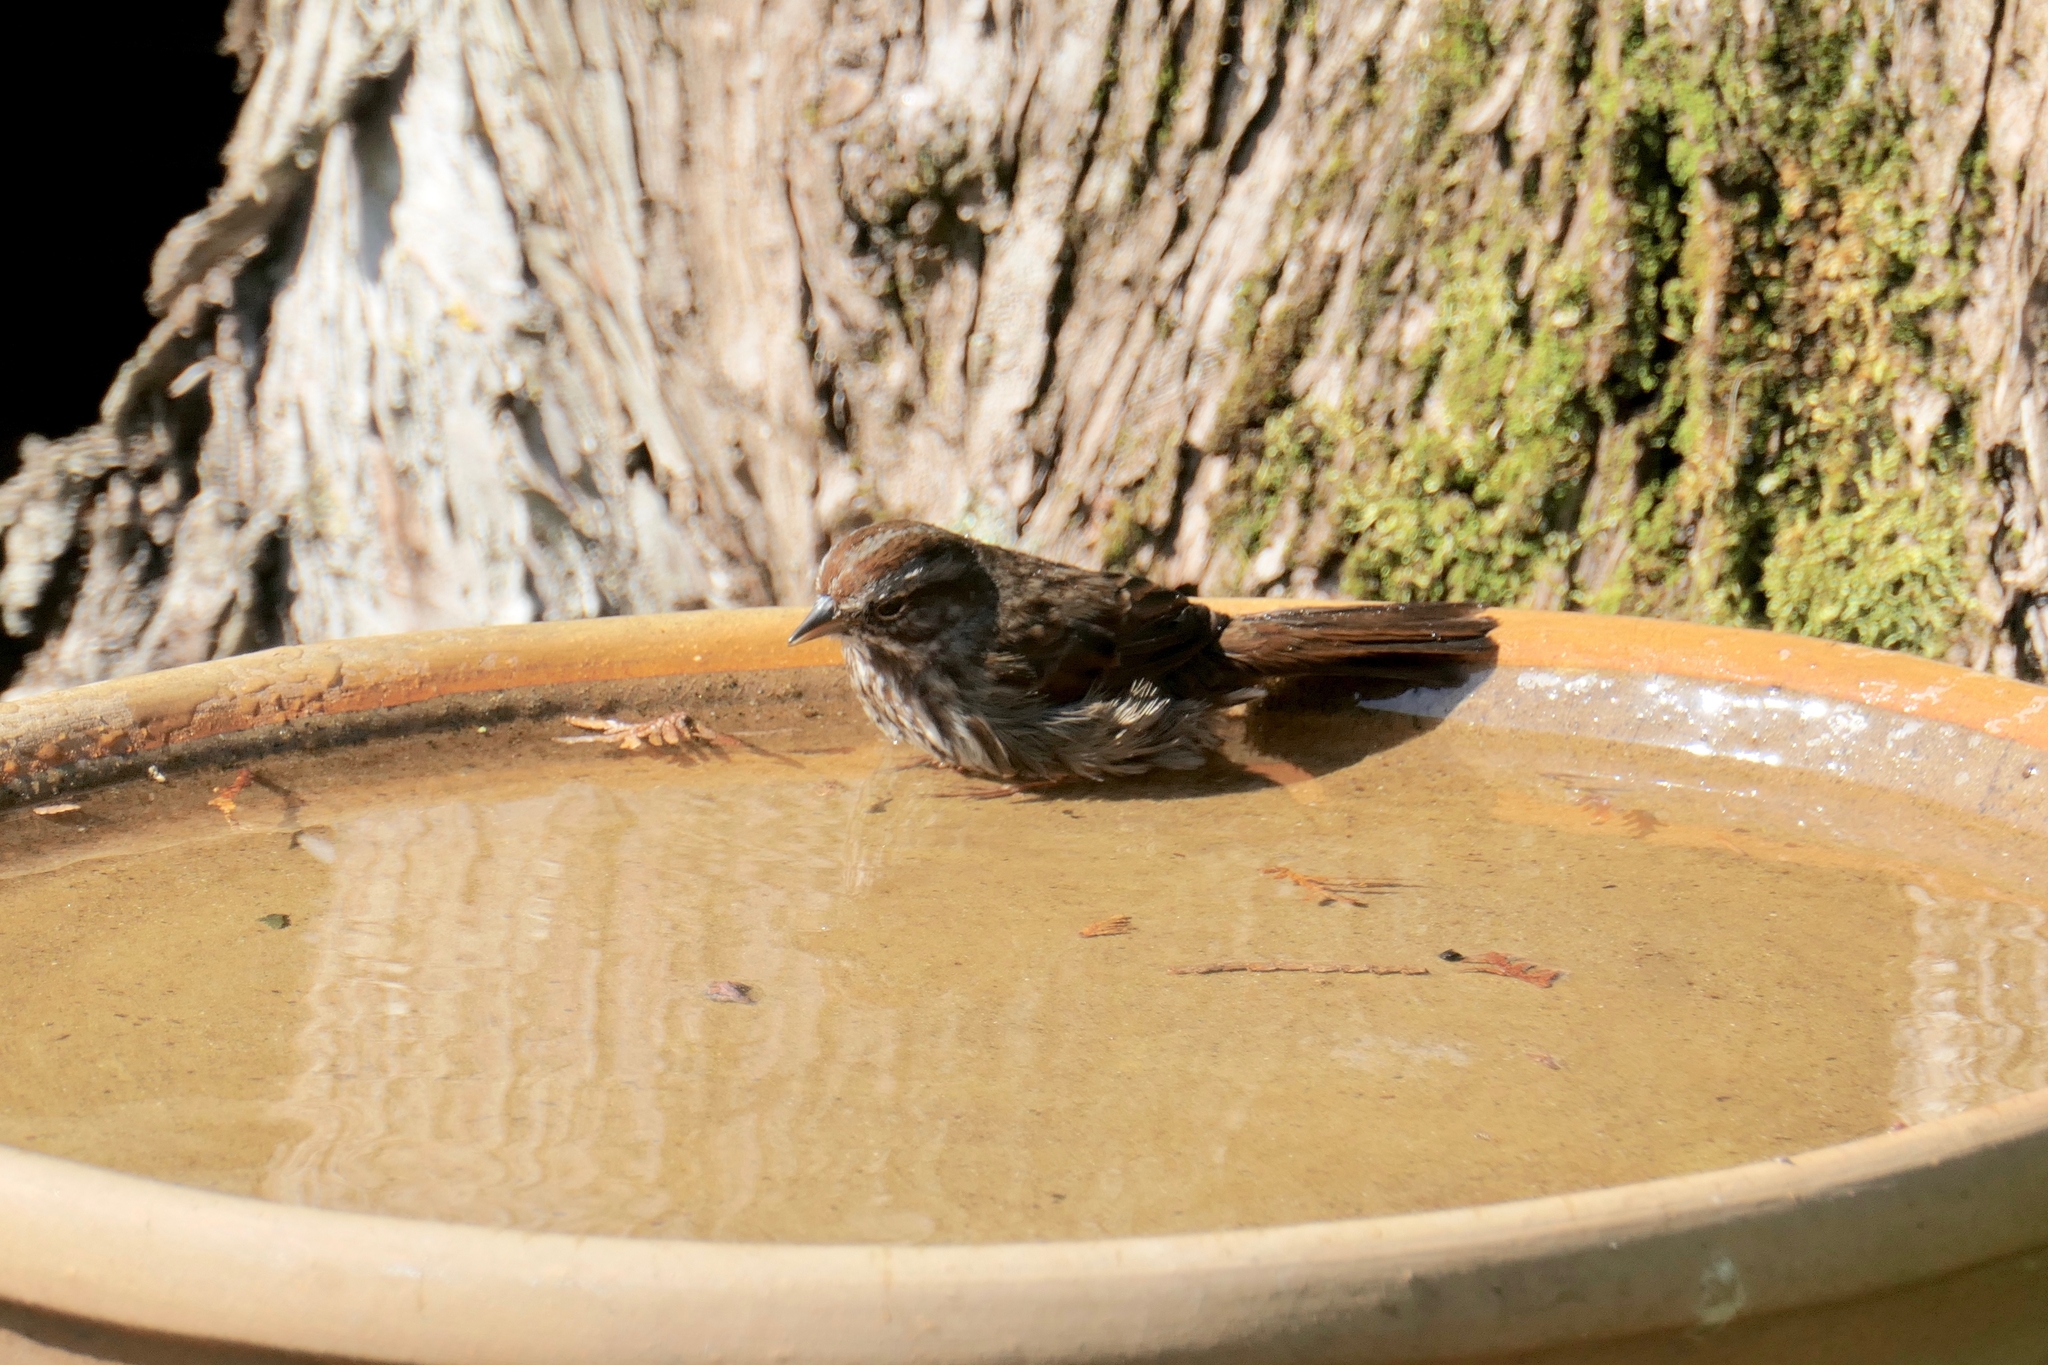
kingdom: Animalia
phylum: Chordata
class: Aves
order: Passeriformes
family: Passerellidae
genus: Melospiza
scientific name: Melospiza melodia
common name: Song sparrow
